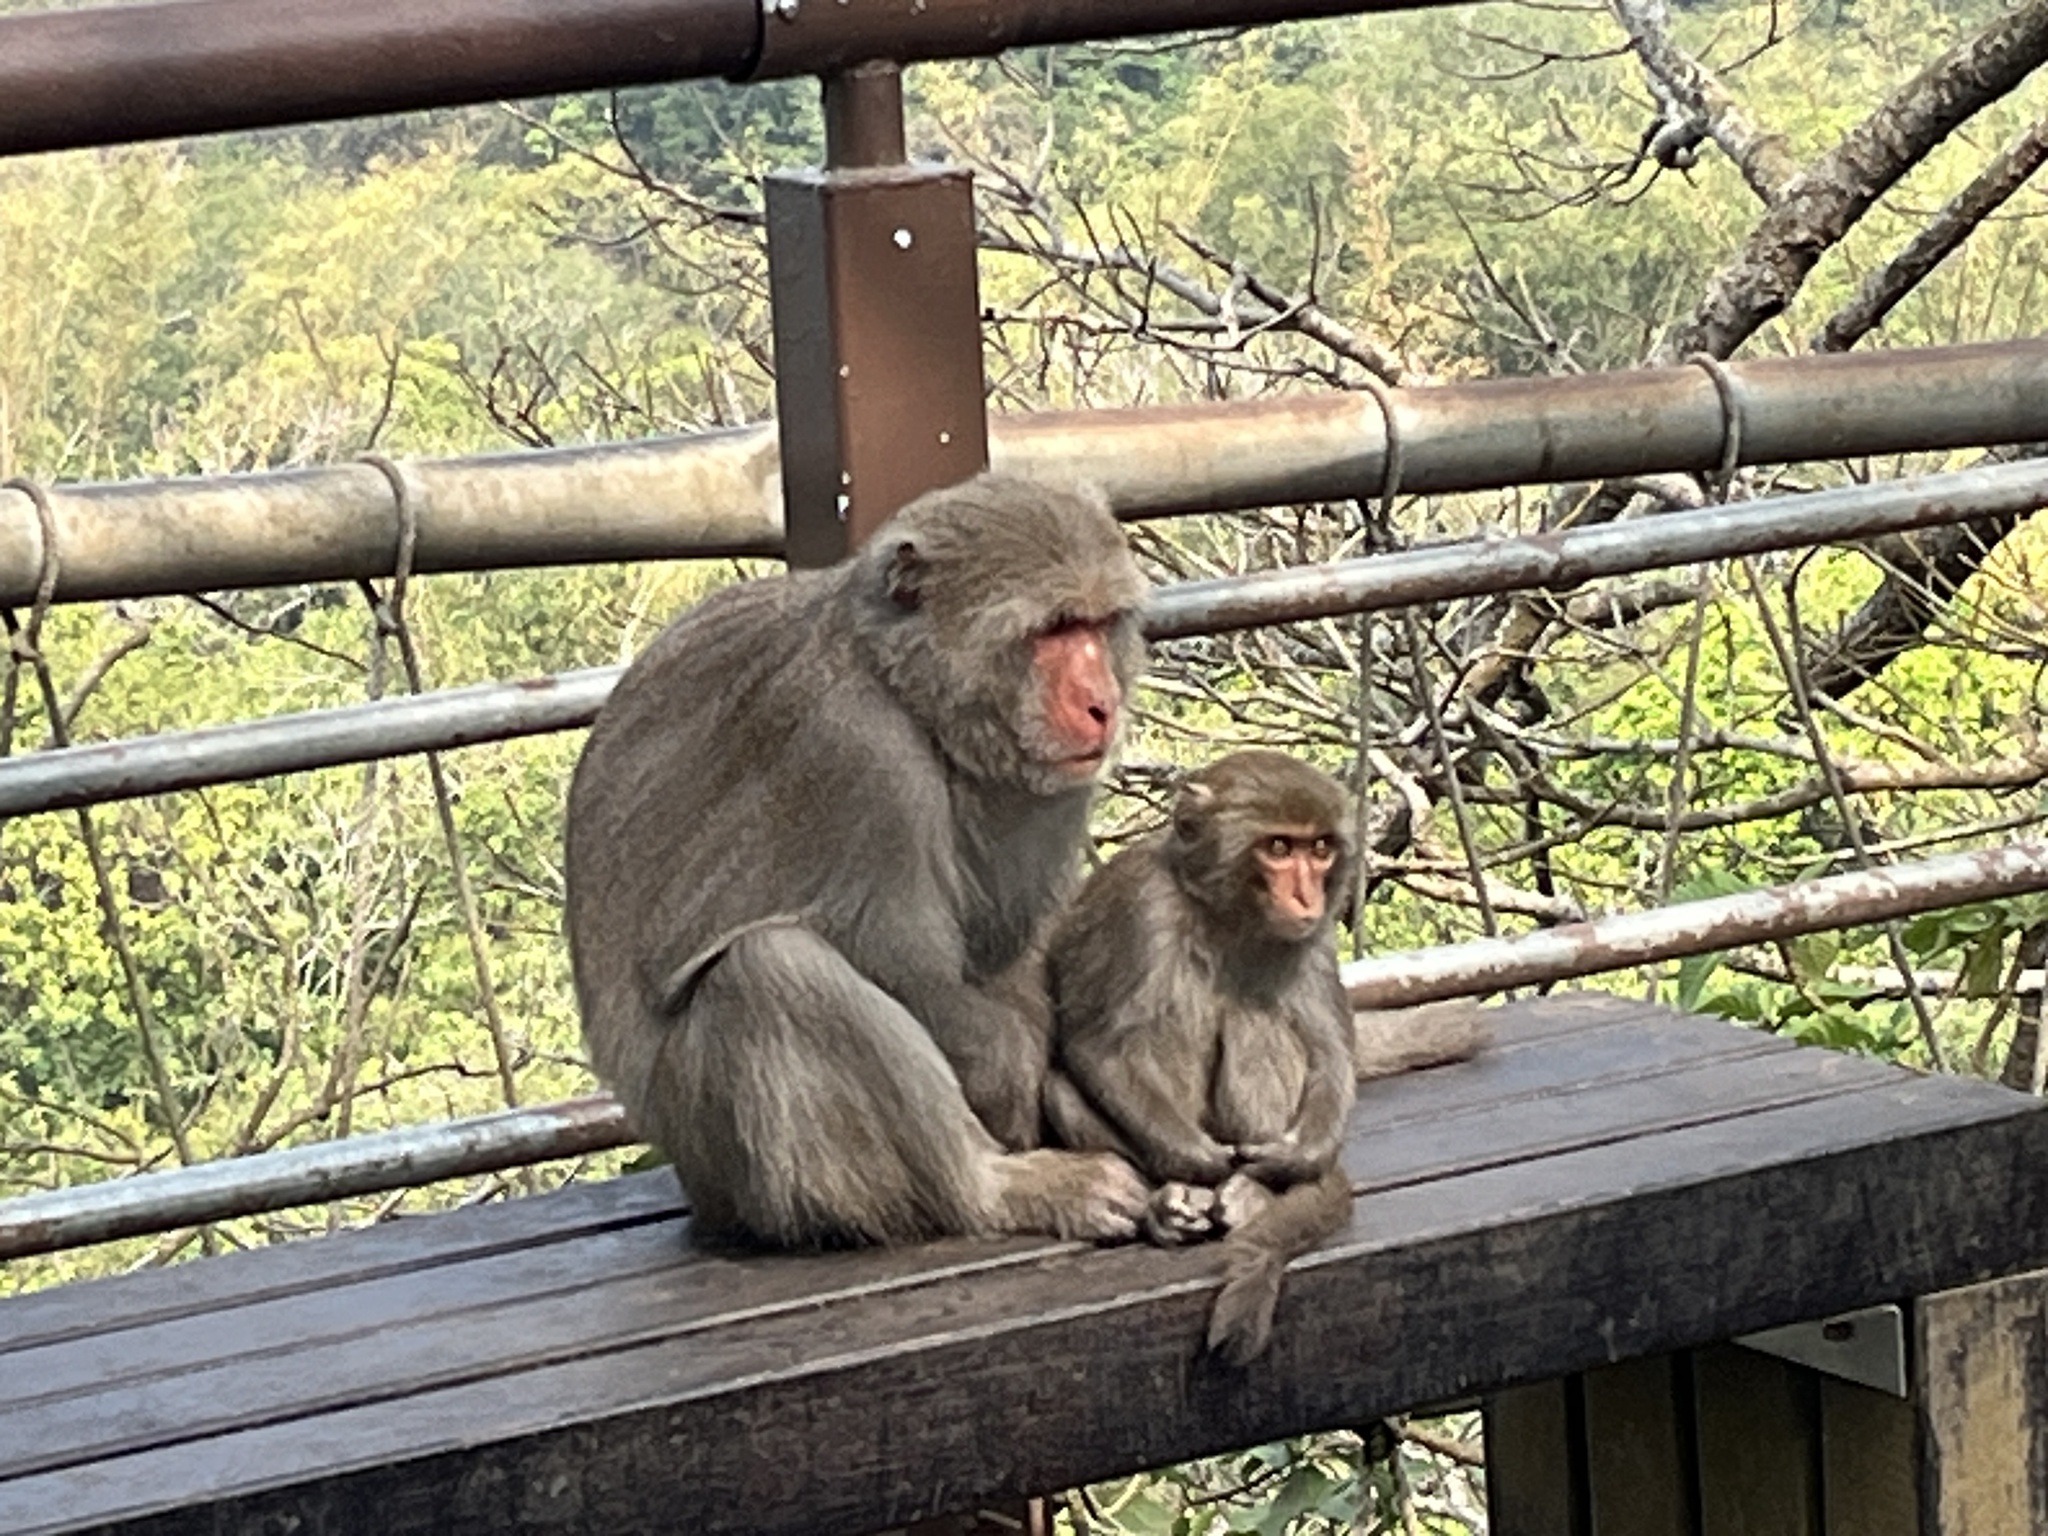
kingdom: Animalia
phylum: Chordata
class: Mammalia
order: Primates
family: Cercopithecidae
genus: Macaca
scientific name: Macaca cyclopis
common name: Formosan rock macaque
